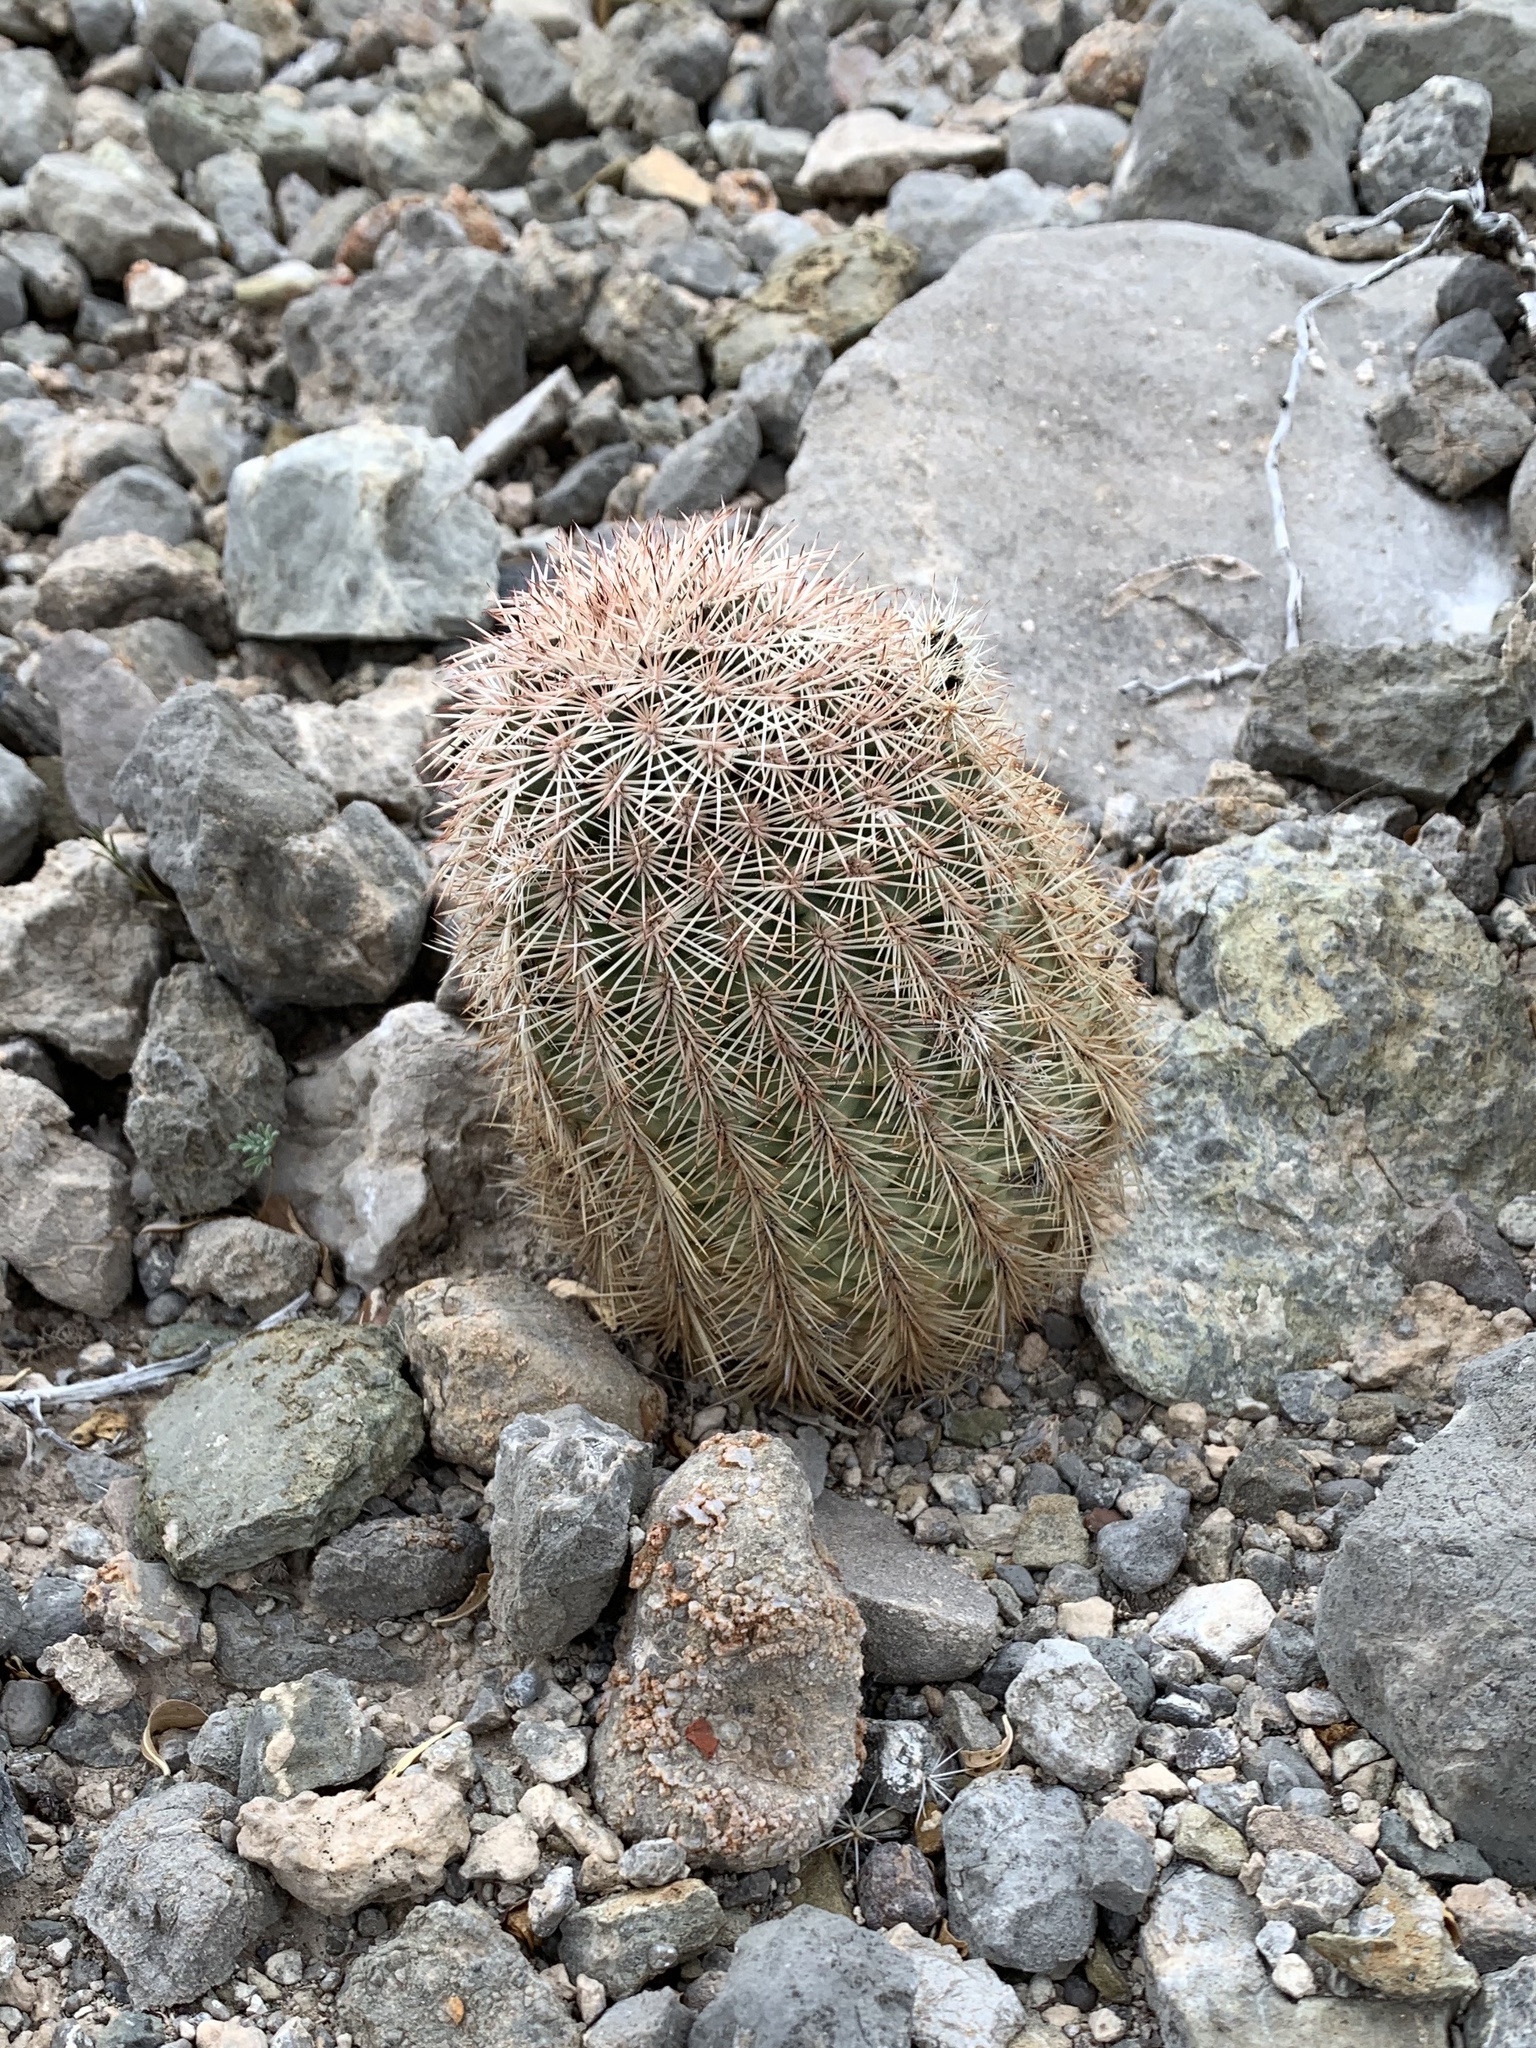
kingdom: Plantae
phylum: Tracheophyta
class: Magnoliopsida
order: Caryophyllales
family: Cactaceae
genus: Echinocereus
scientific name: Echinocereus dasyacanthus
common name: Spiny hedgehog cactus
